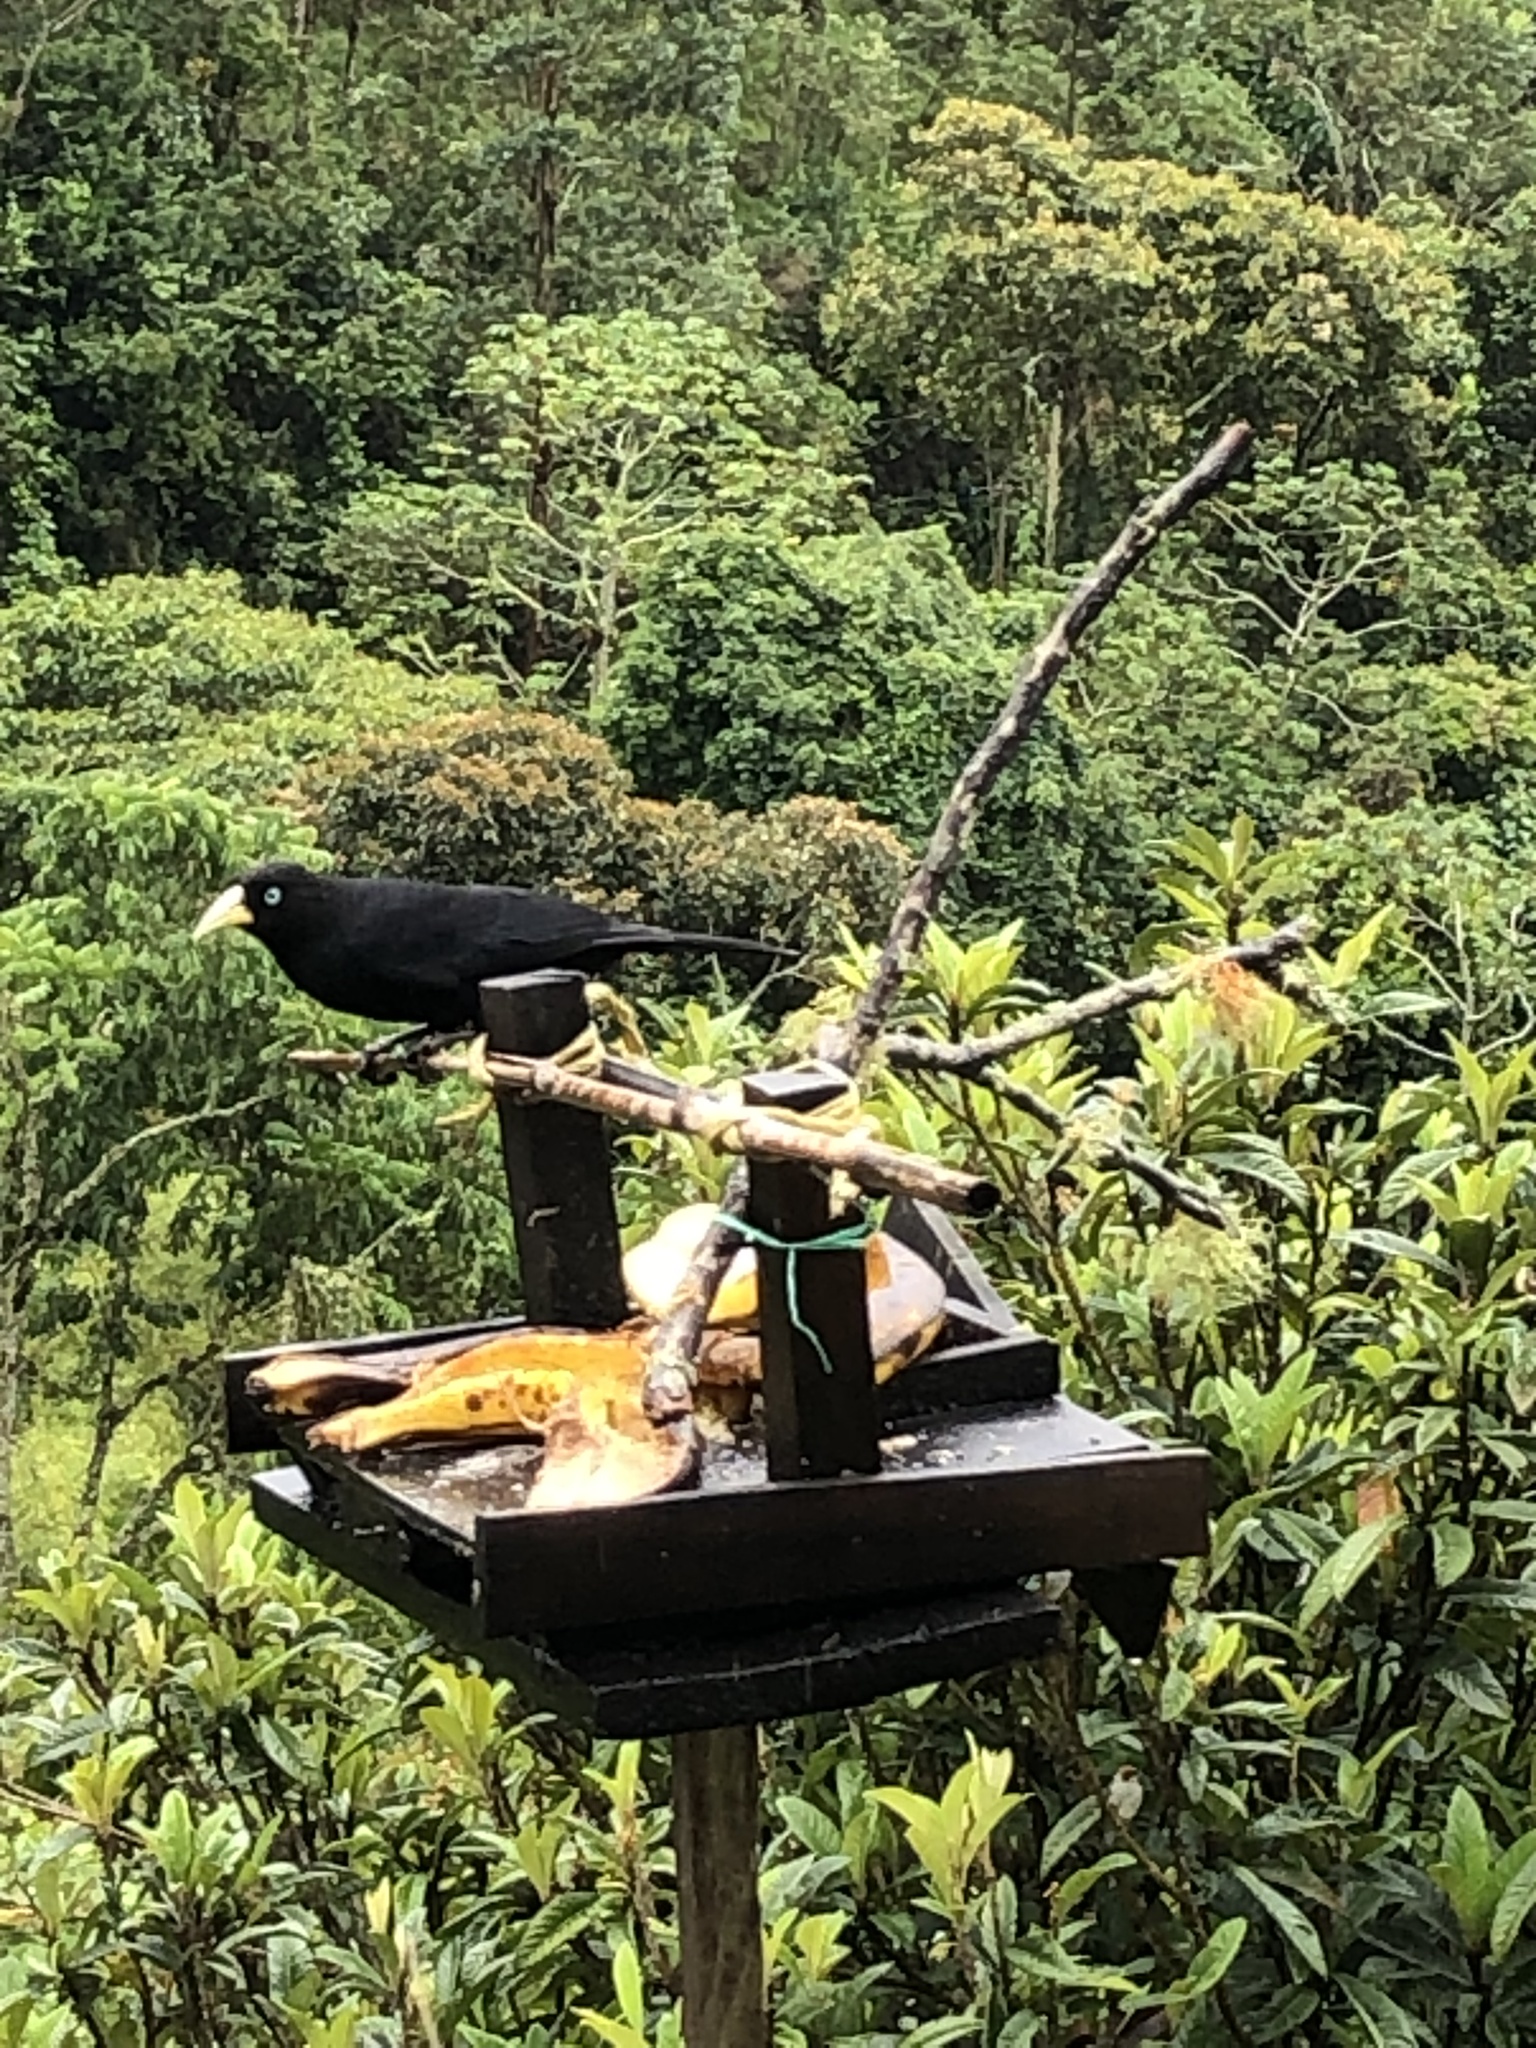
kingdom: Animalia
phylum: Chordata
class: Aves
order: Passeriformes
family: Icteridae
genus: Cacicus
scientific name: Cacicus uropygialis
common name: Scarlet-rumped cacique
